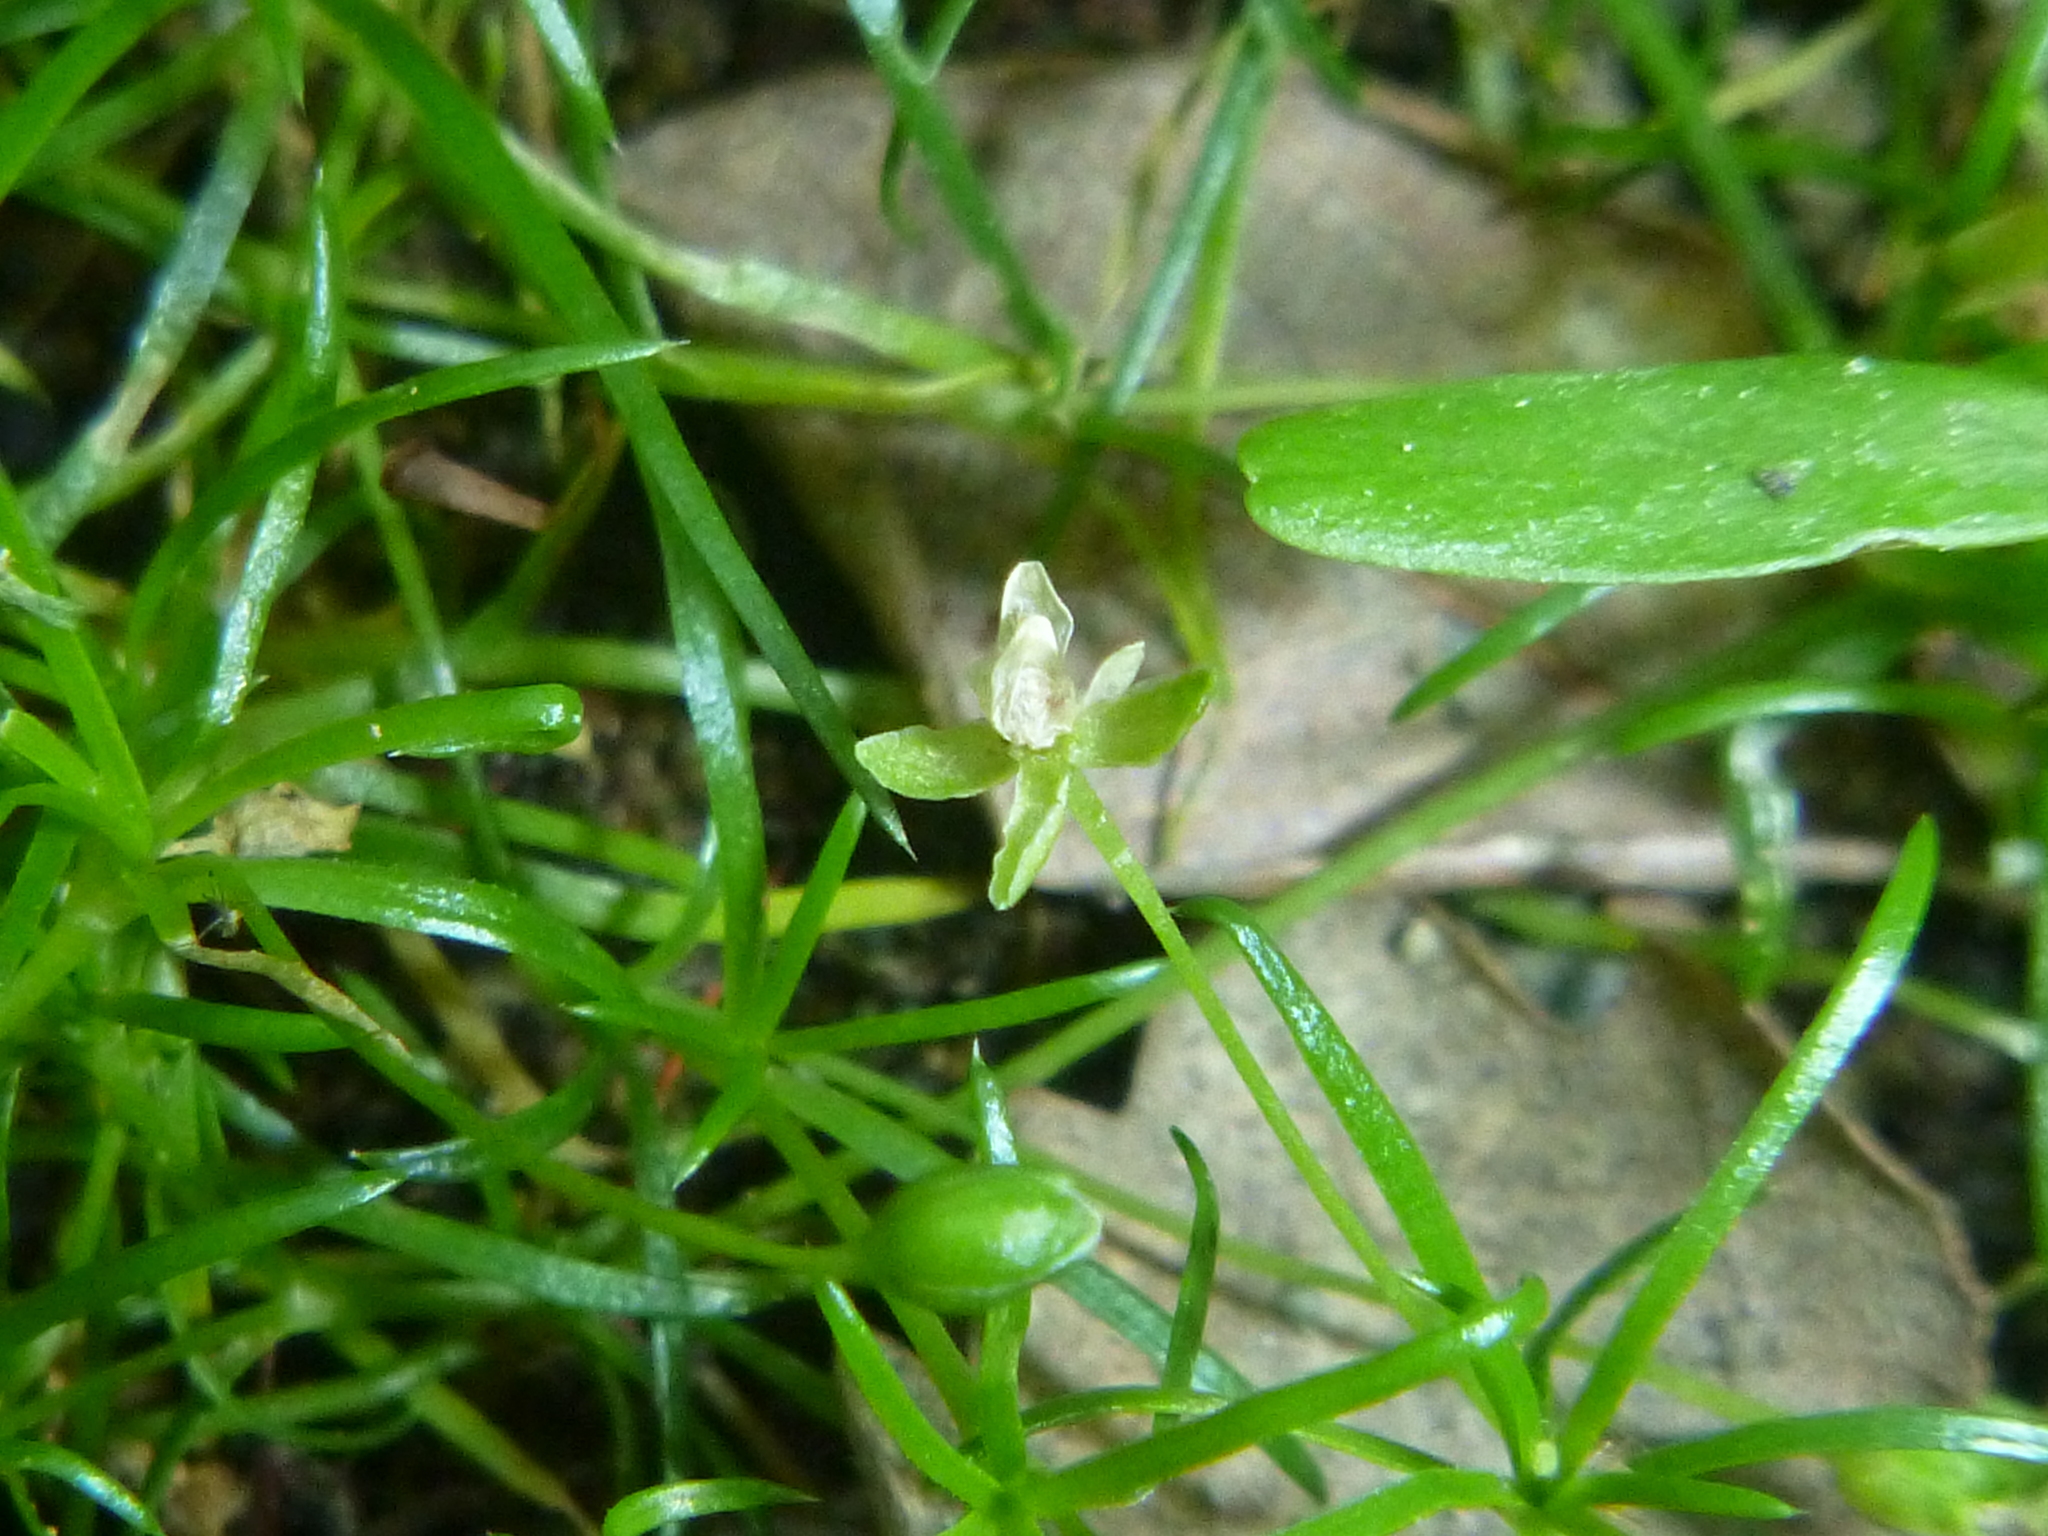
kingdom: Plantae
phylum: Tracheophyta
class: Magnoliopsida
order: Caryophyllales
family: Caryophyllaceae
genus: Sagina
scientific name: Sagina procumbens
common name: Procumbent pearlwort
